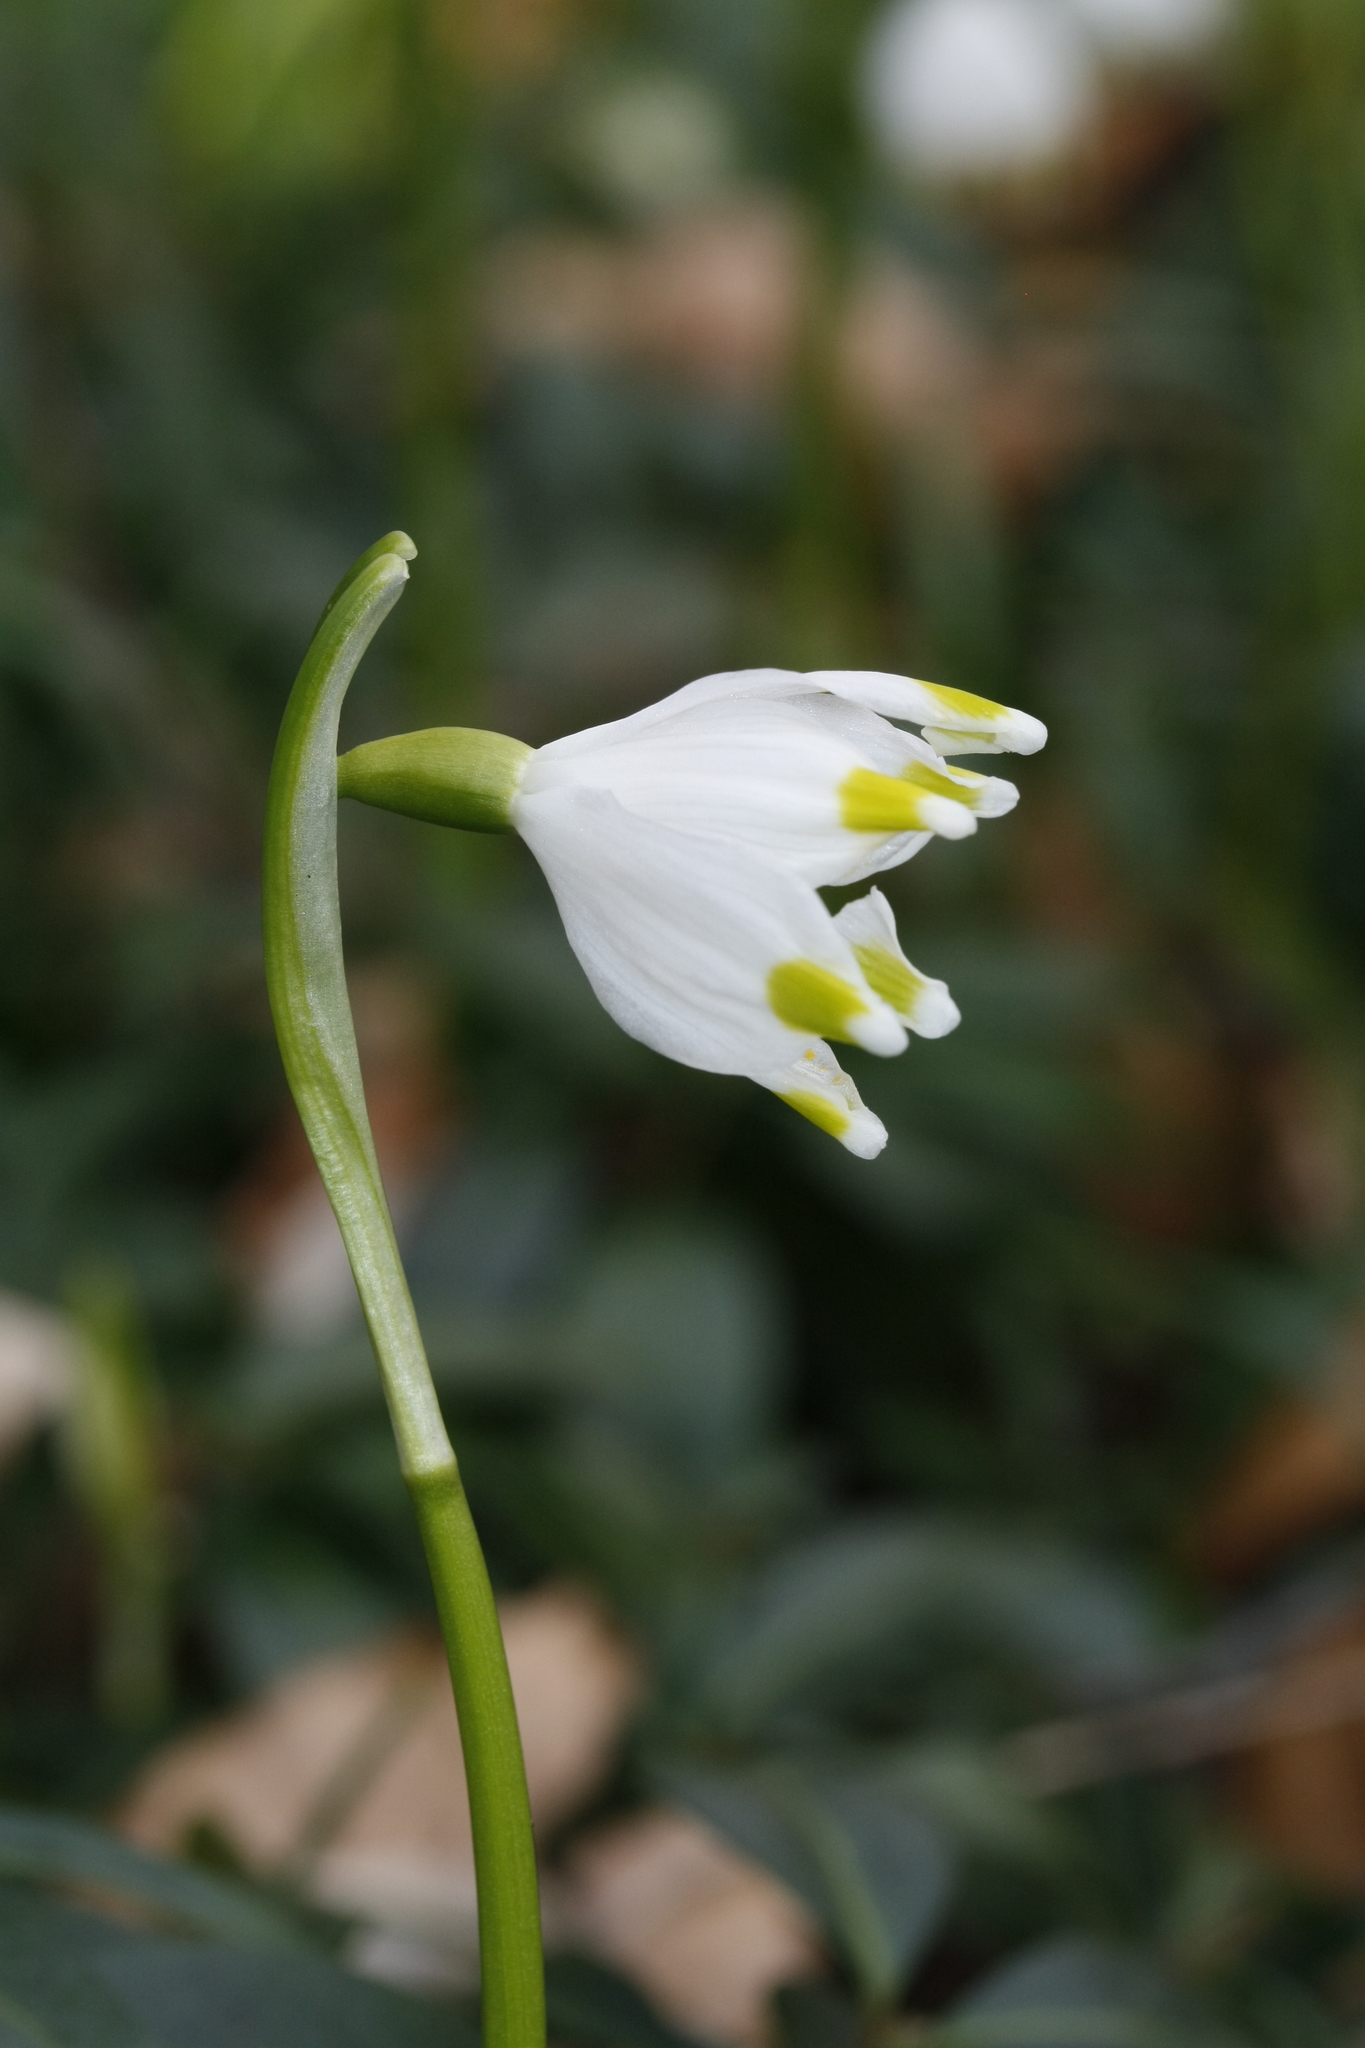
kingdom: Plantae
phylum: Tracheophyta
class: Liliopsida
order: Asparagales
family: Amaryllidaceae
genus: Leucojum
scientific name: Leucojum vernum
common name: Spring snowflake
